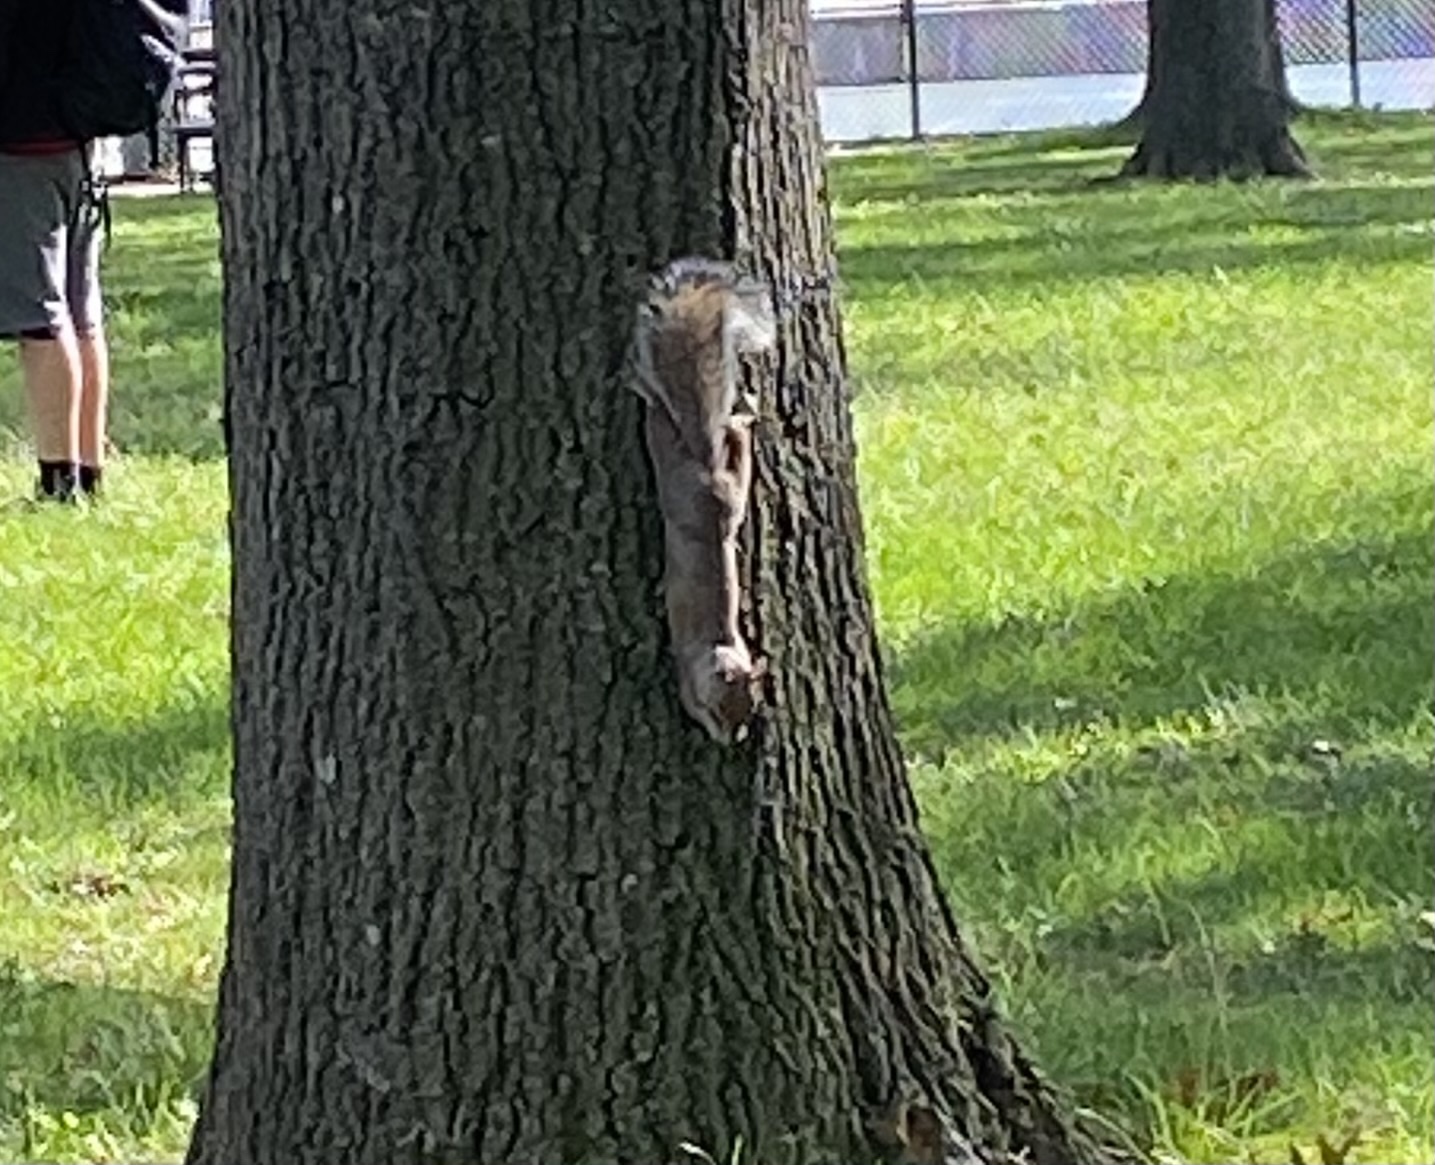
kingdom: Animalia
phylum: Chordata
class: Mammalia
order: Rodentia
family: Sciuridae
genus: Sciurus
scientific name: Sciurus carolinensis
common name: Eastern gray squirrel
